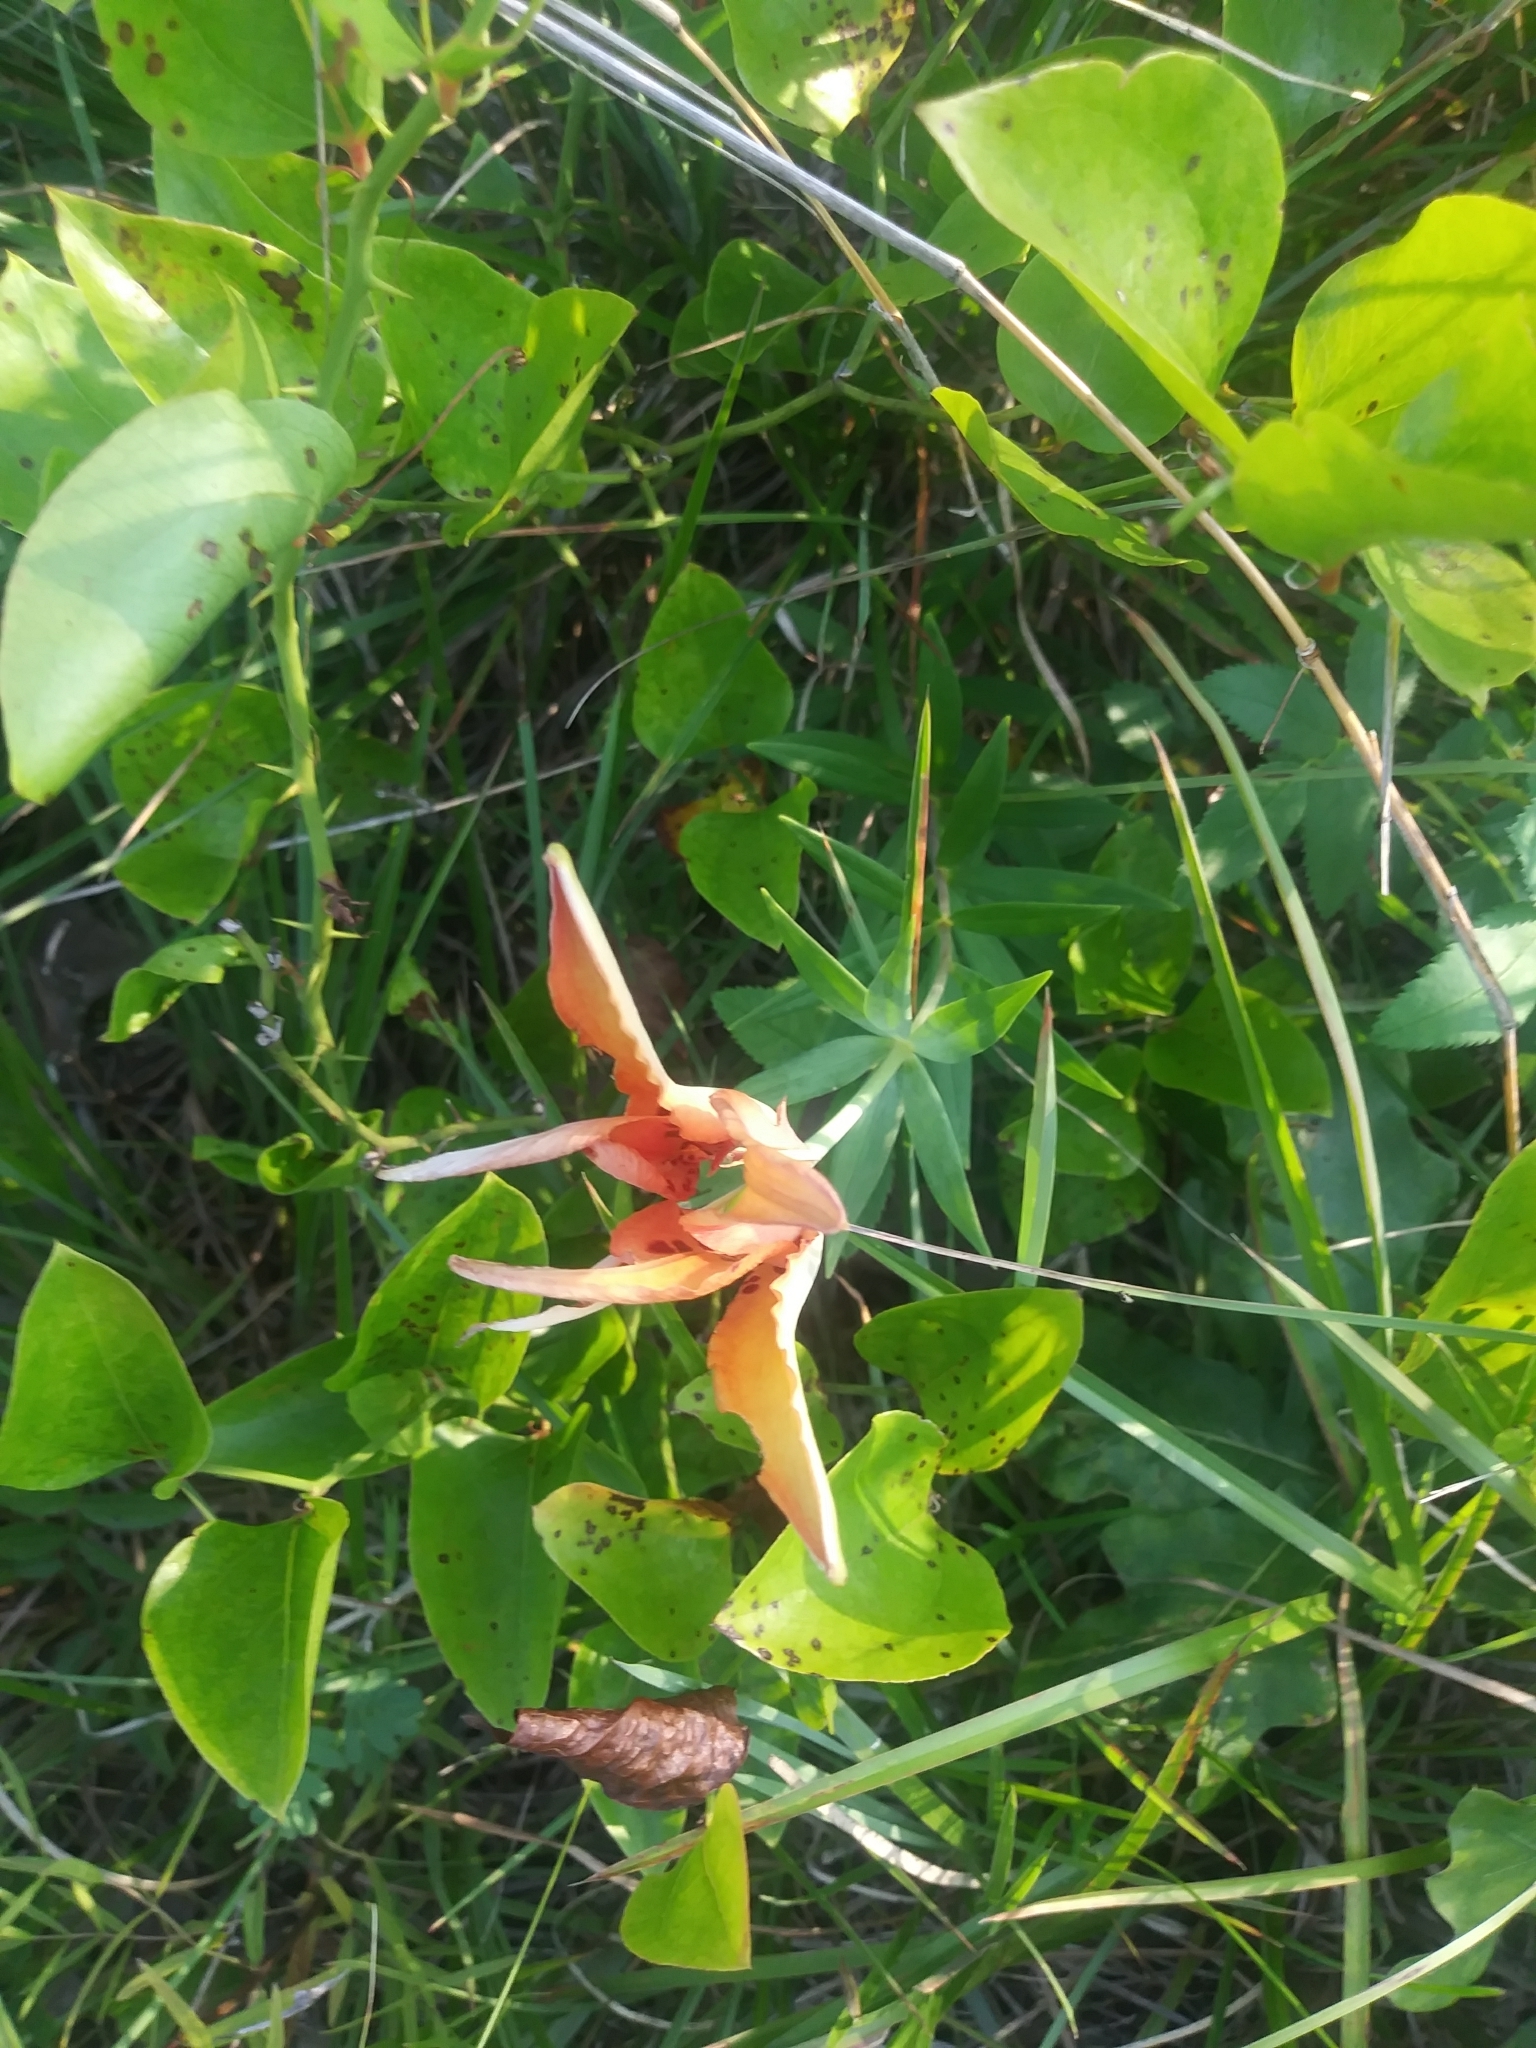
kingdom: Plantae
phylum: Tracheophyta
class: Liliopsida
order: Liliales
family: Liliaceae
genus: Lilium
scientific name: Lilium philadelphicum
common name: Red lily
